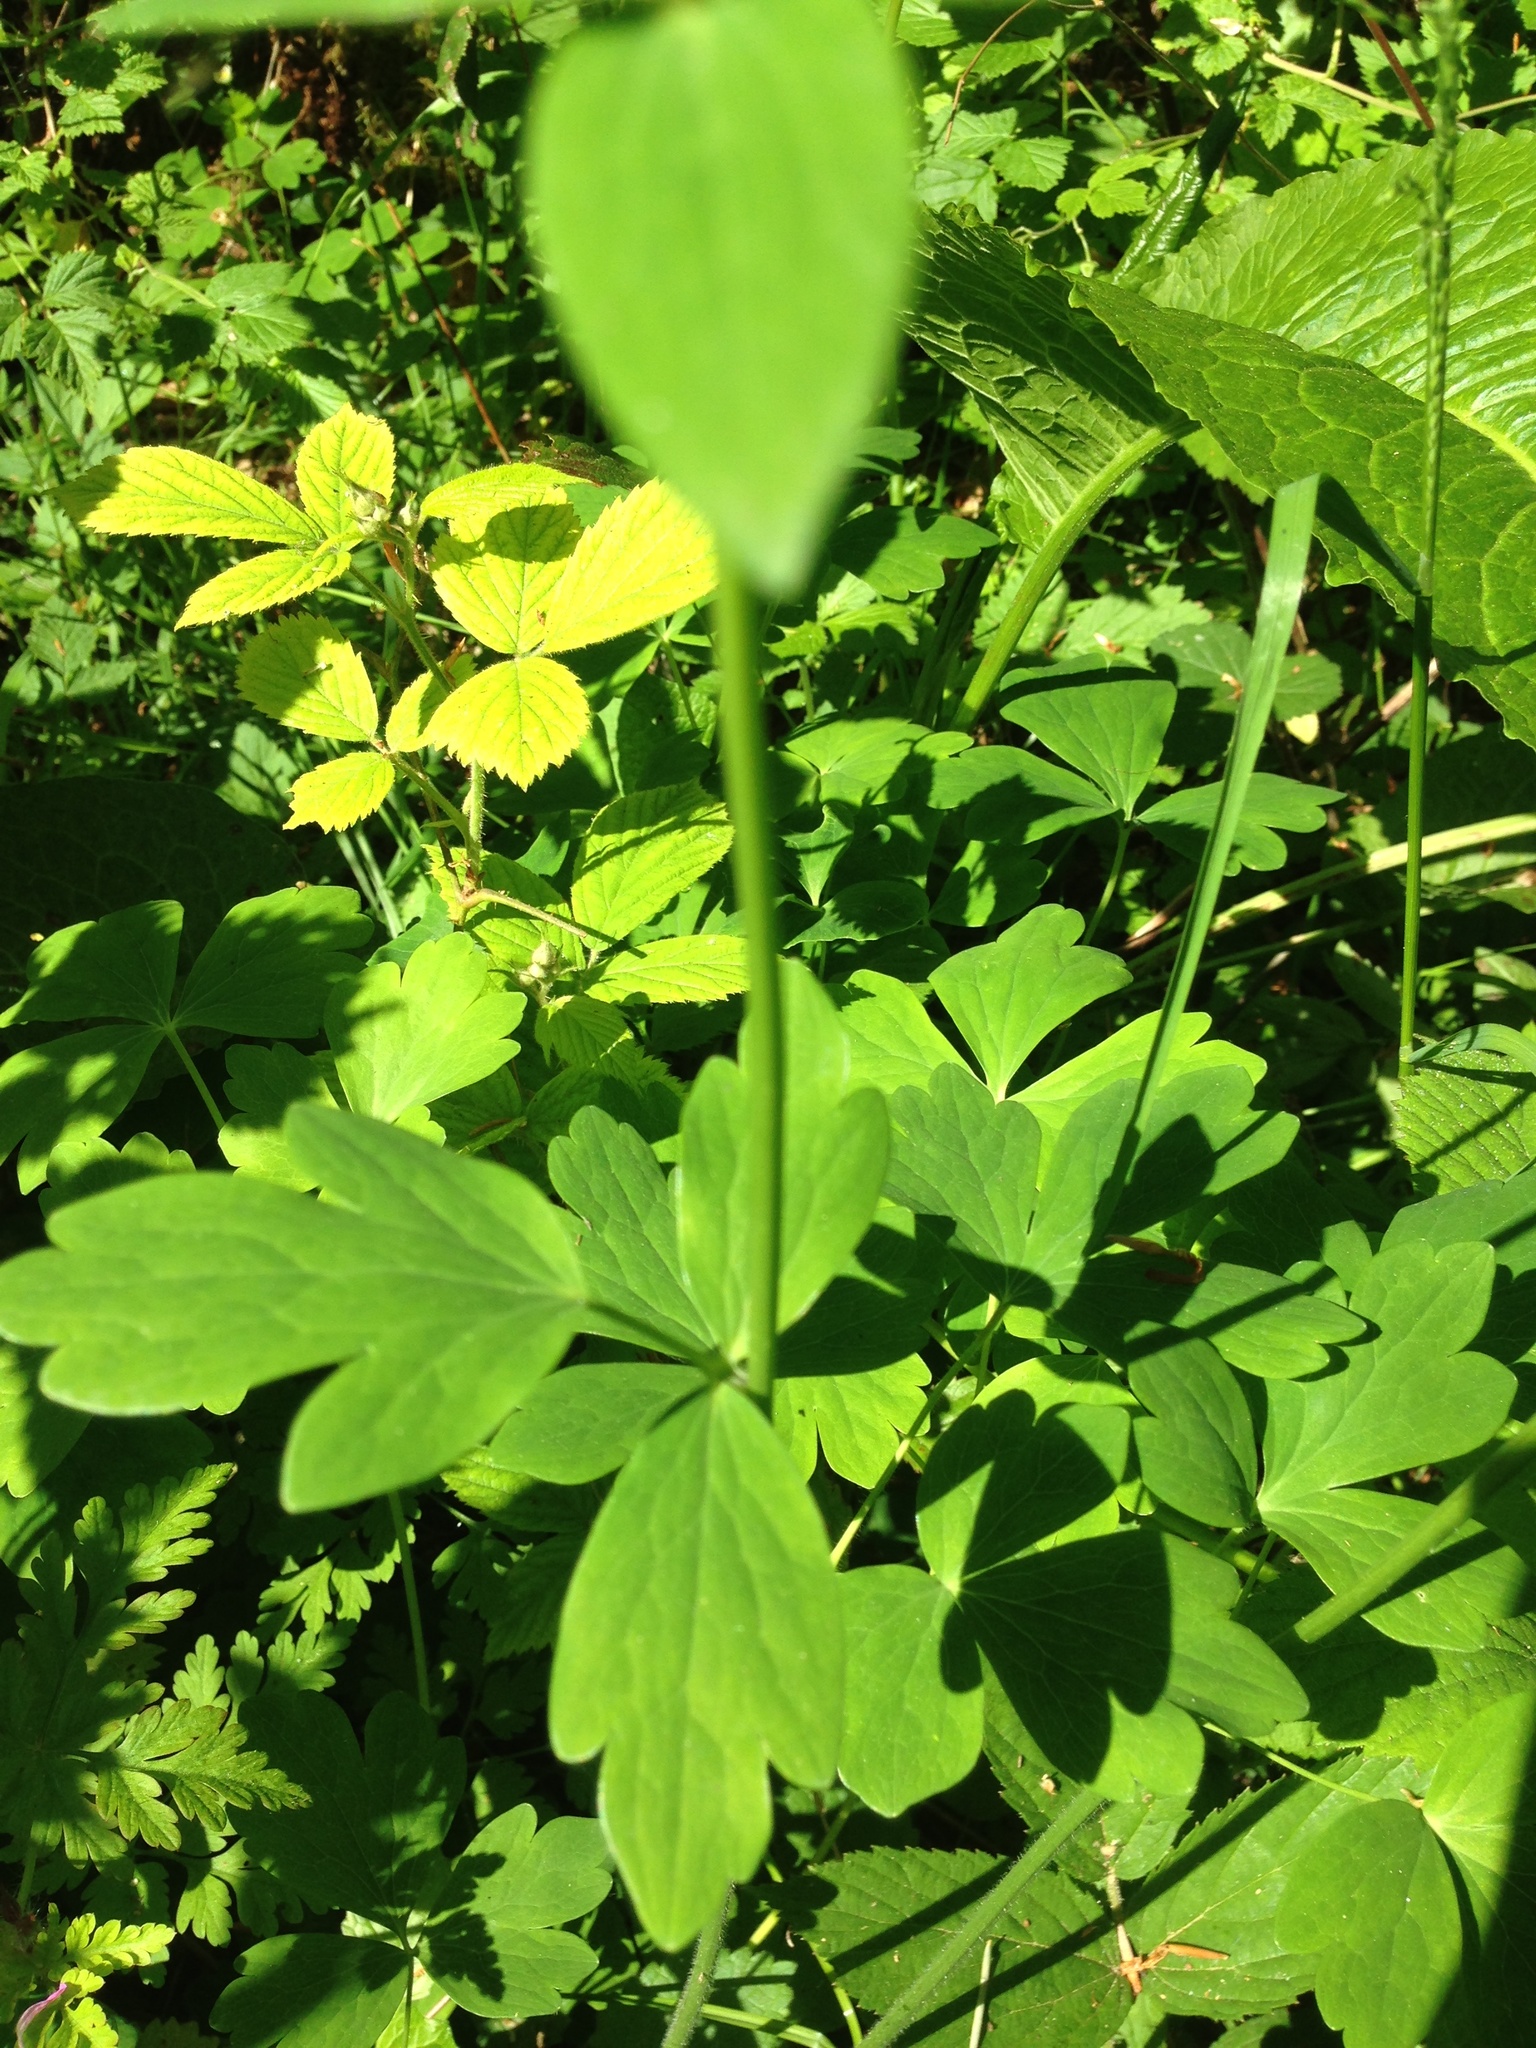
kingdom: Plantae
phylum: Tracheophyta
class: Magnoliopsida
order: Ranunculales
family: Ranunculaceae
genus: Aquilegia
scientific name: Aquilegia vulgaris
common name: Columbine
